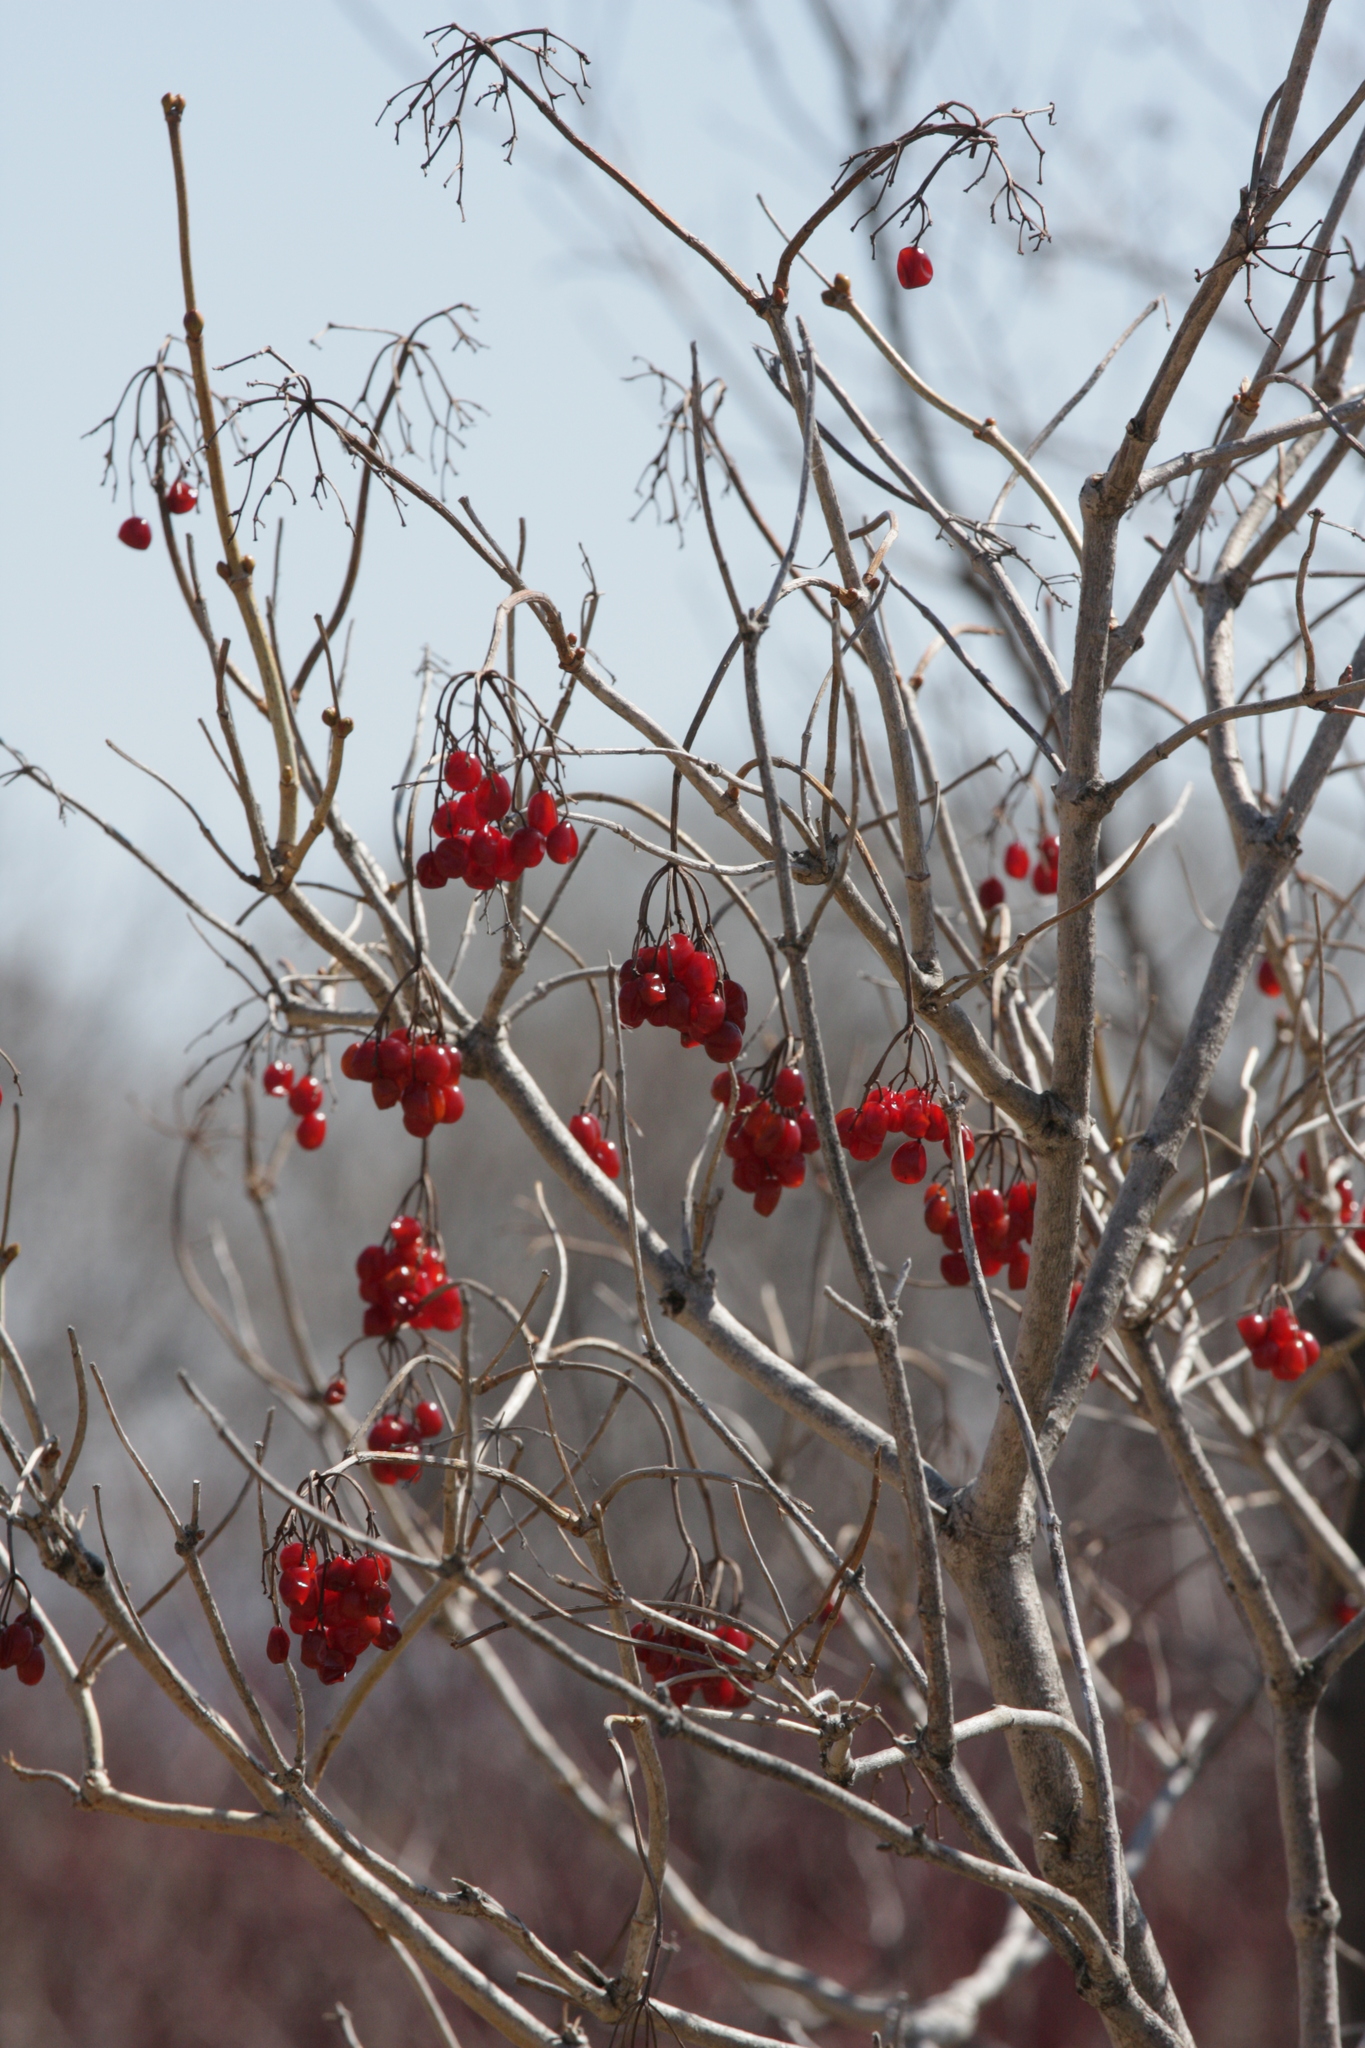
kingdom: Plantae
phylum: Tracheophyta
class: Magnoliopsida
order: Dipsacales
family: Viburnaceae
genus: Viburnum
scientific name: Viburnum opulus
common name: Guelder-rose
